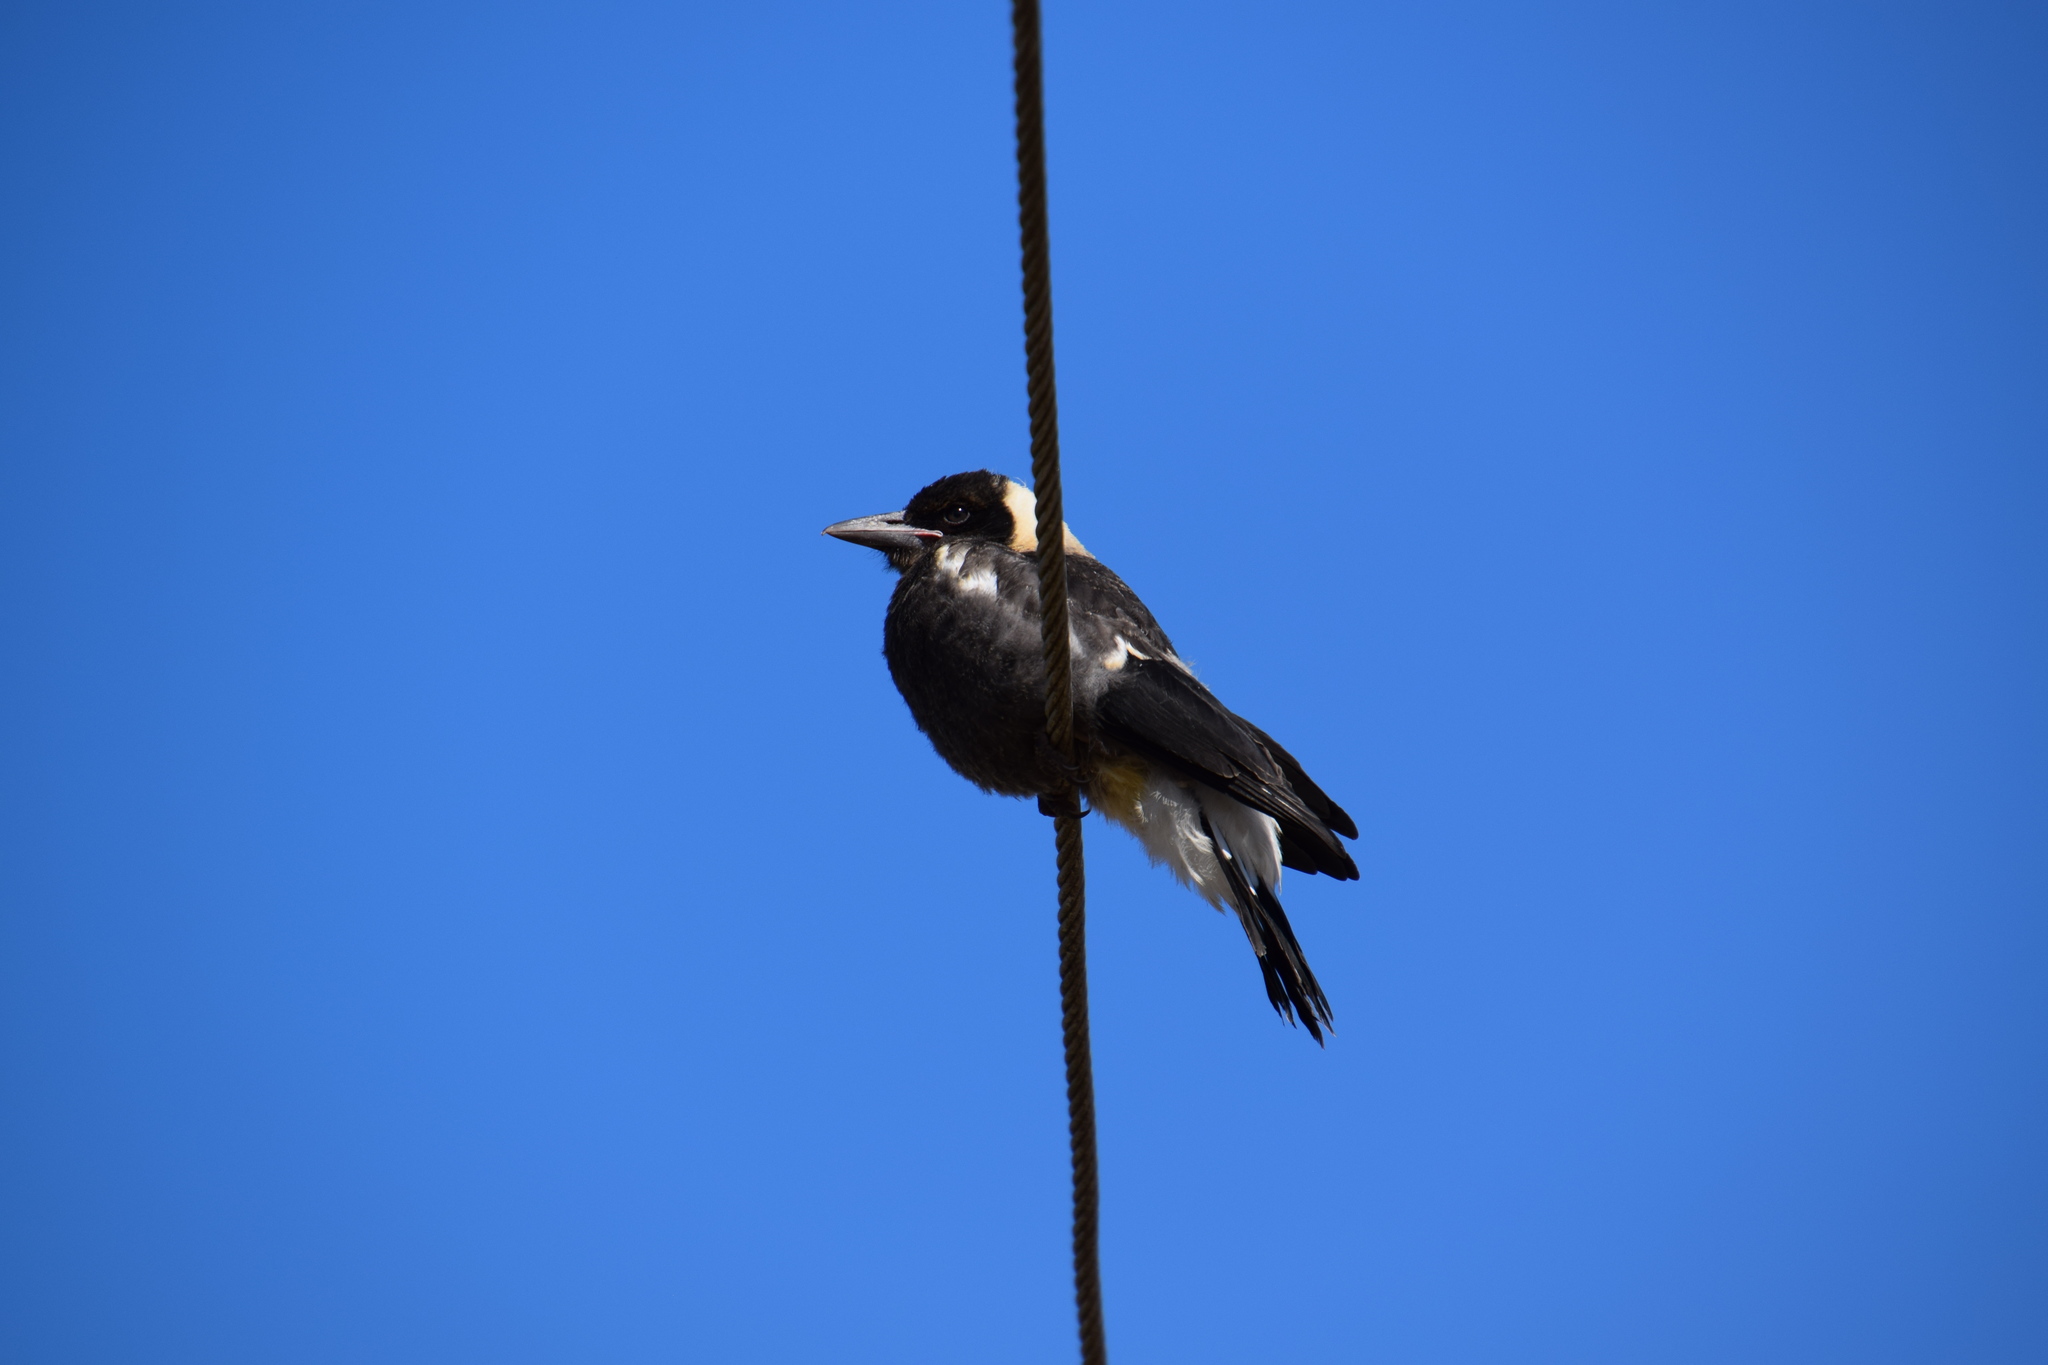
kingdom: Animalia
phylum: Chordata
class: Aves
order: Passeriformes
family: Cracticidae
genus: Gymnorhina
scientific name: Gymnorhina tibicen
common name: Australian magpie
